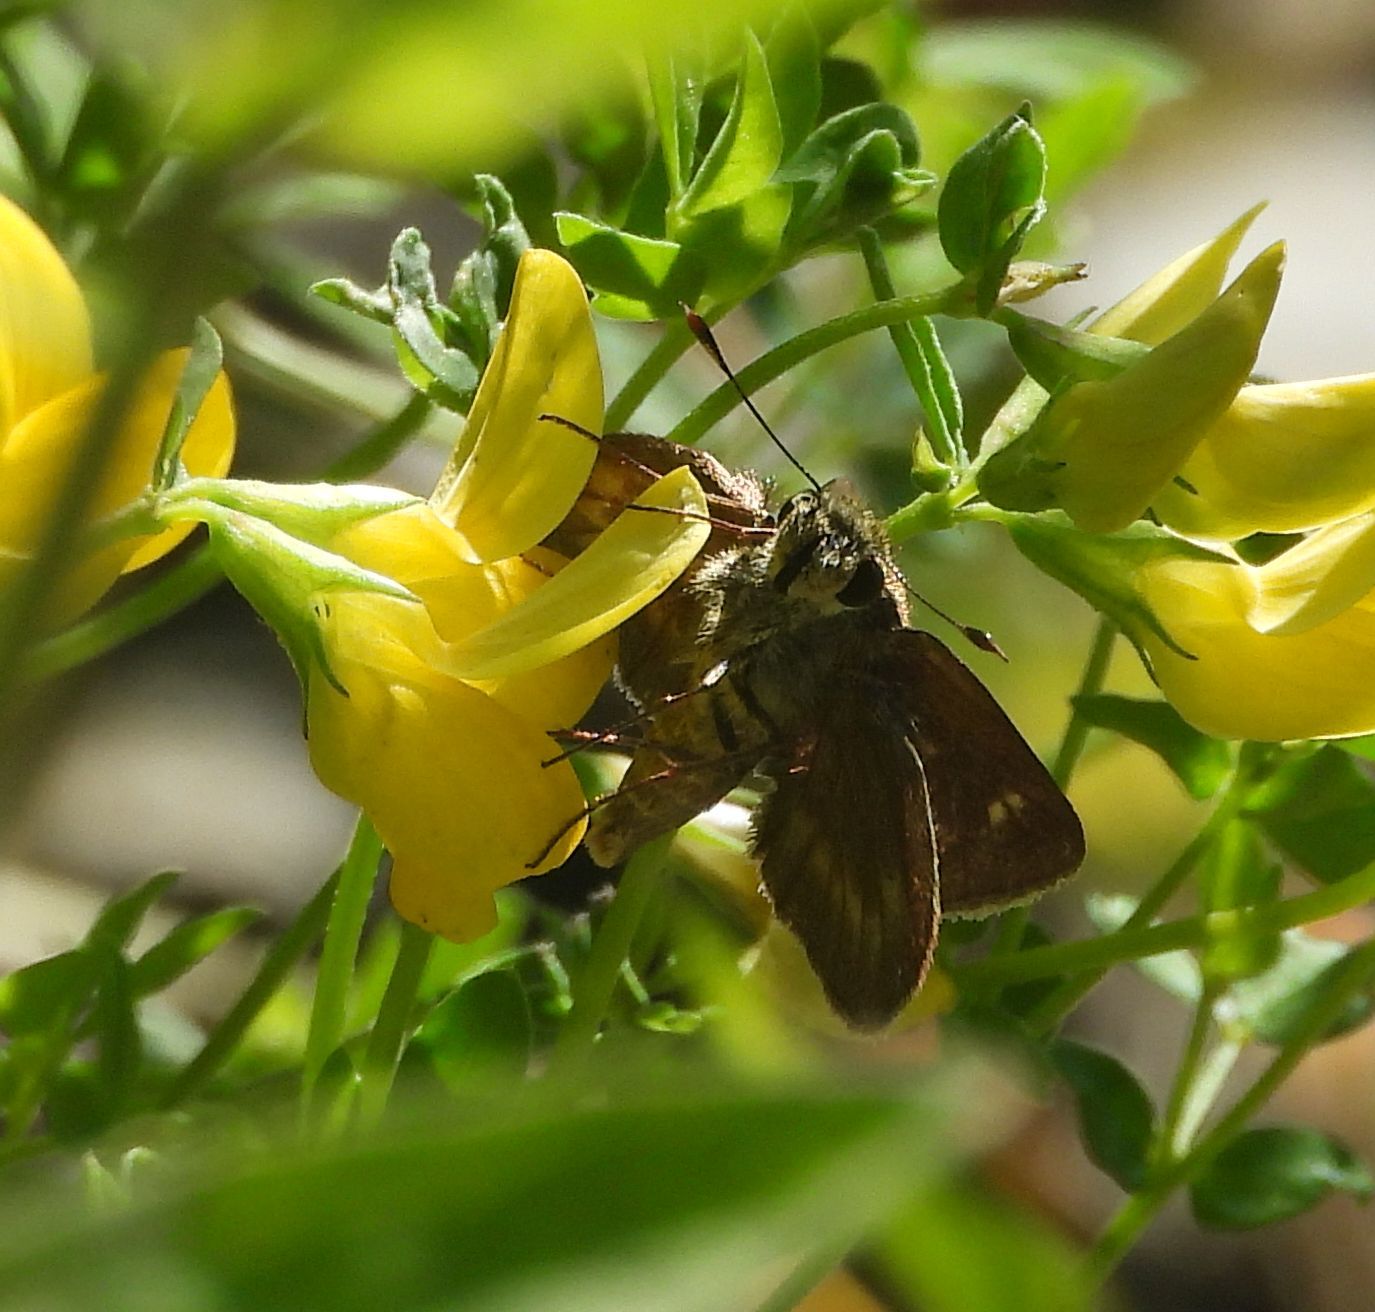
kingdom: Animalia
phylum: Arthropoda
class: Insecta
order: Lepidoptera
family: Hesperiidae
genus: Polites
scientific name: Polites egeremet
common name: Northern broken-dash
